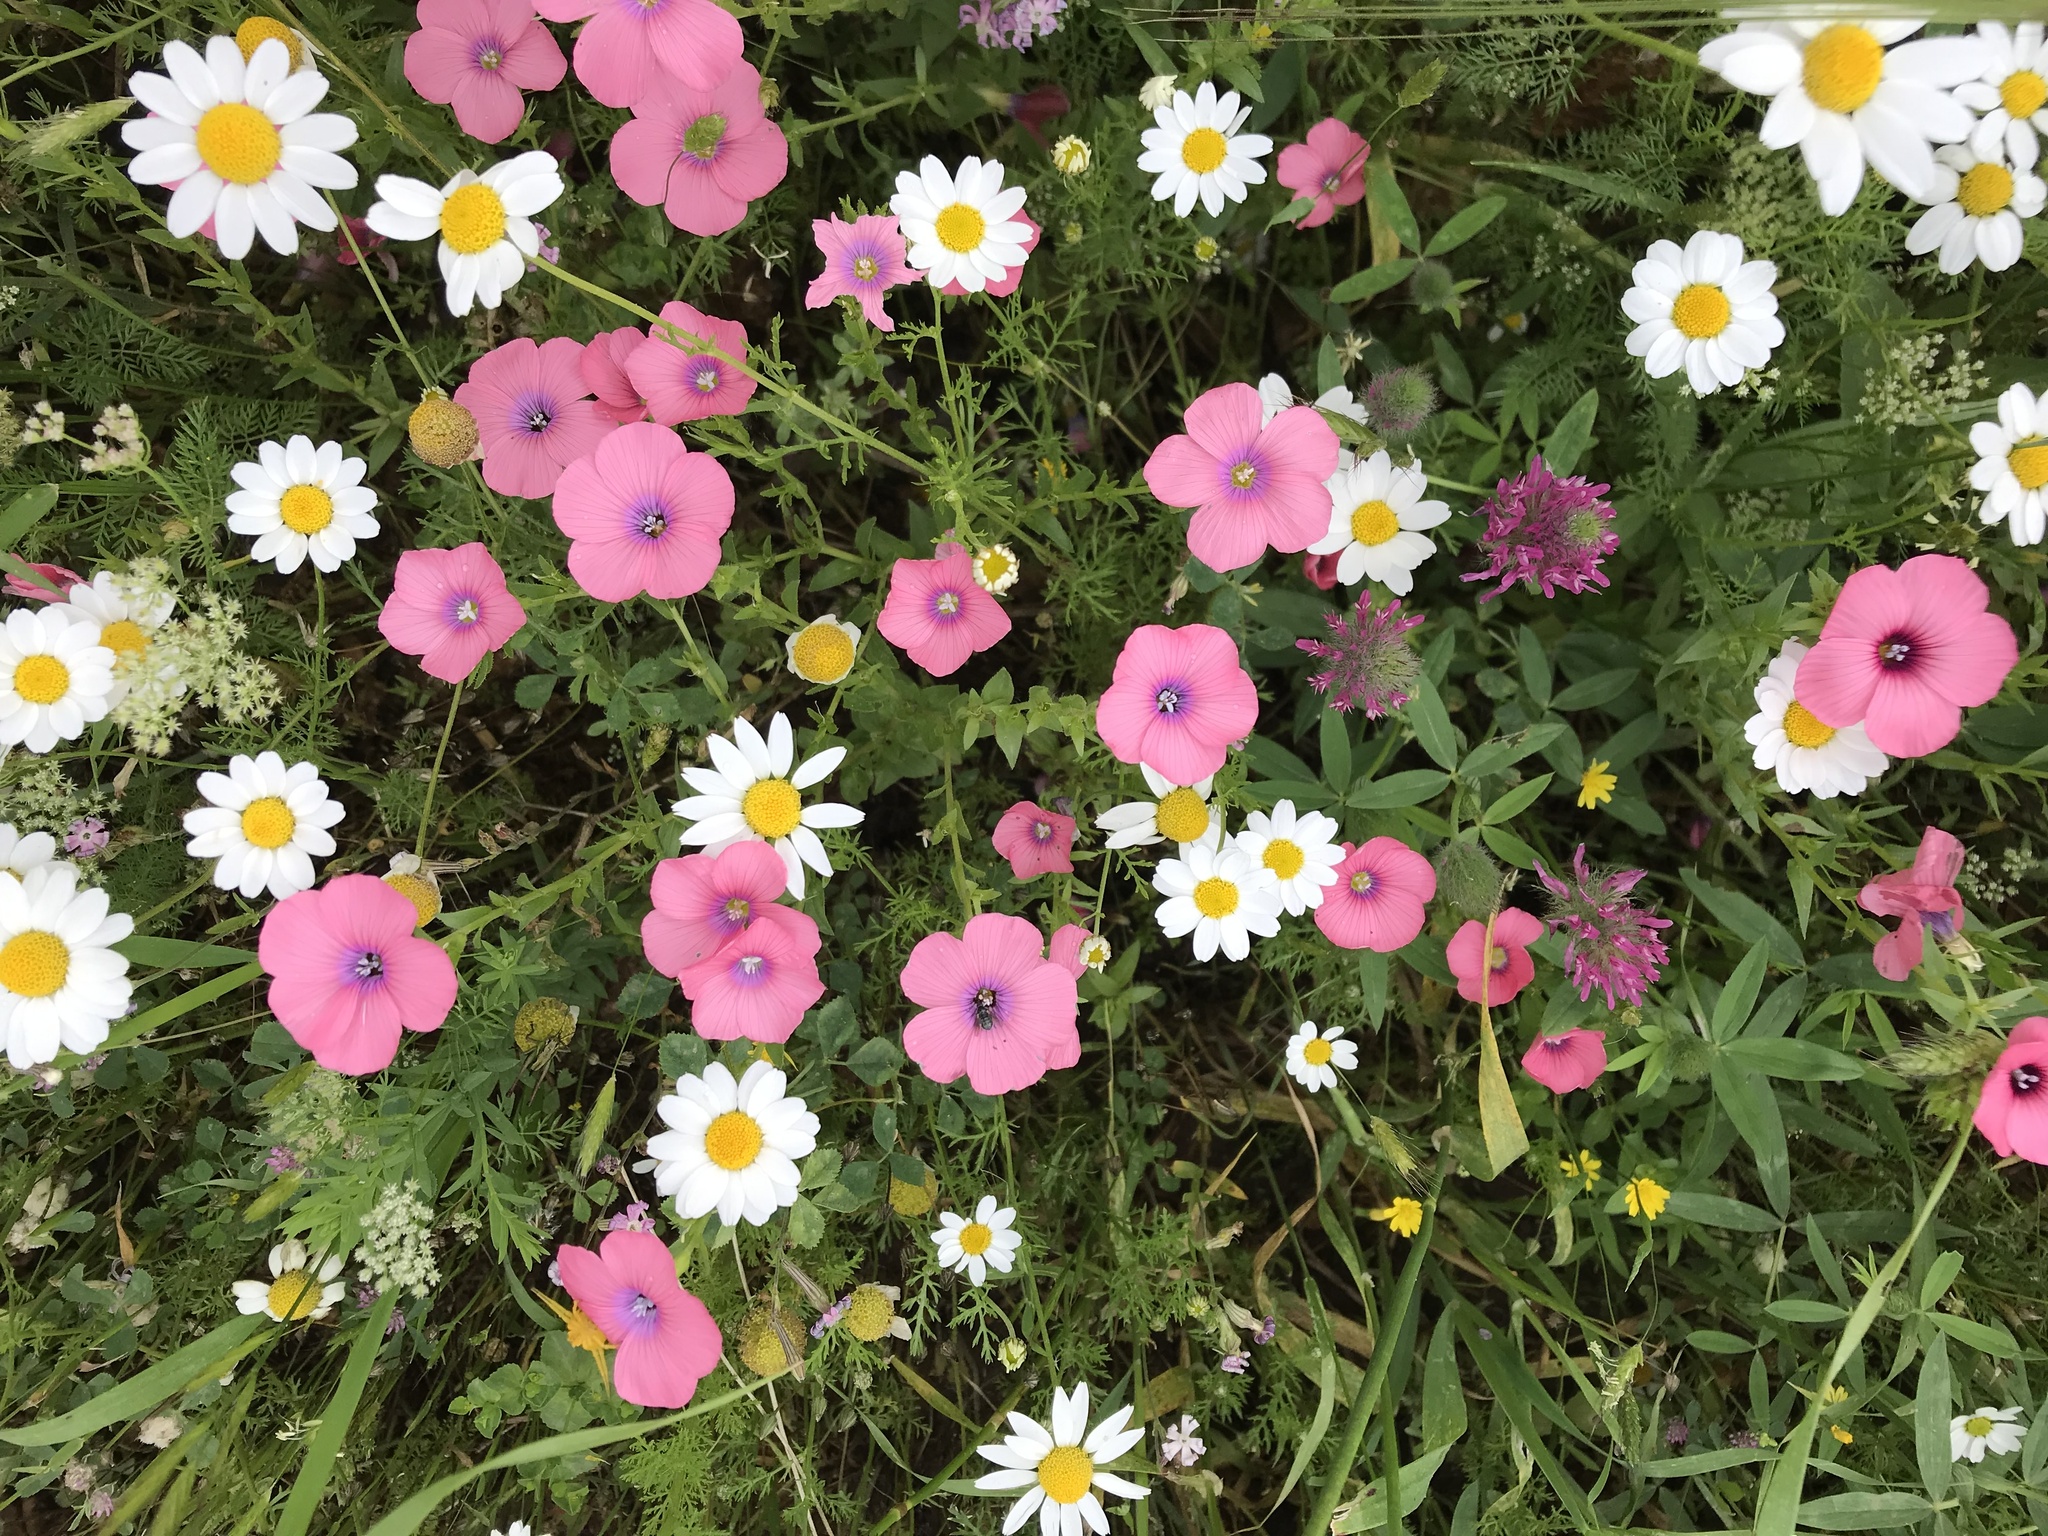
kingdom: Plantae
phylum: Tracheophyta
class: Magnoliopsida
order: Malpighiales
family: Linaceae
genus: Linum
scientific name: Linum pubescens
